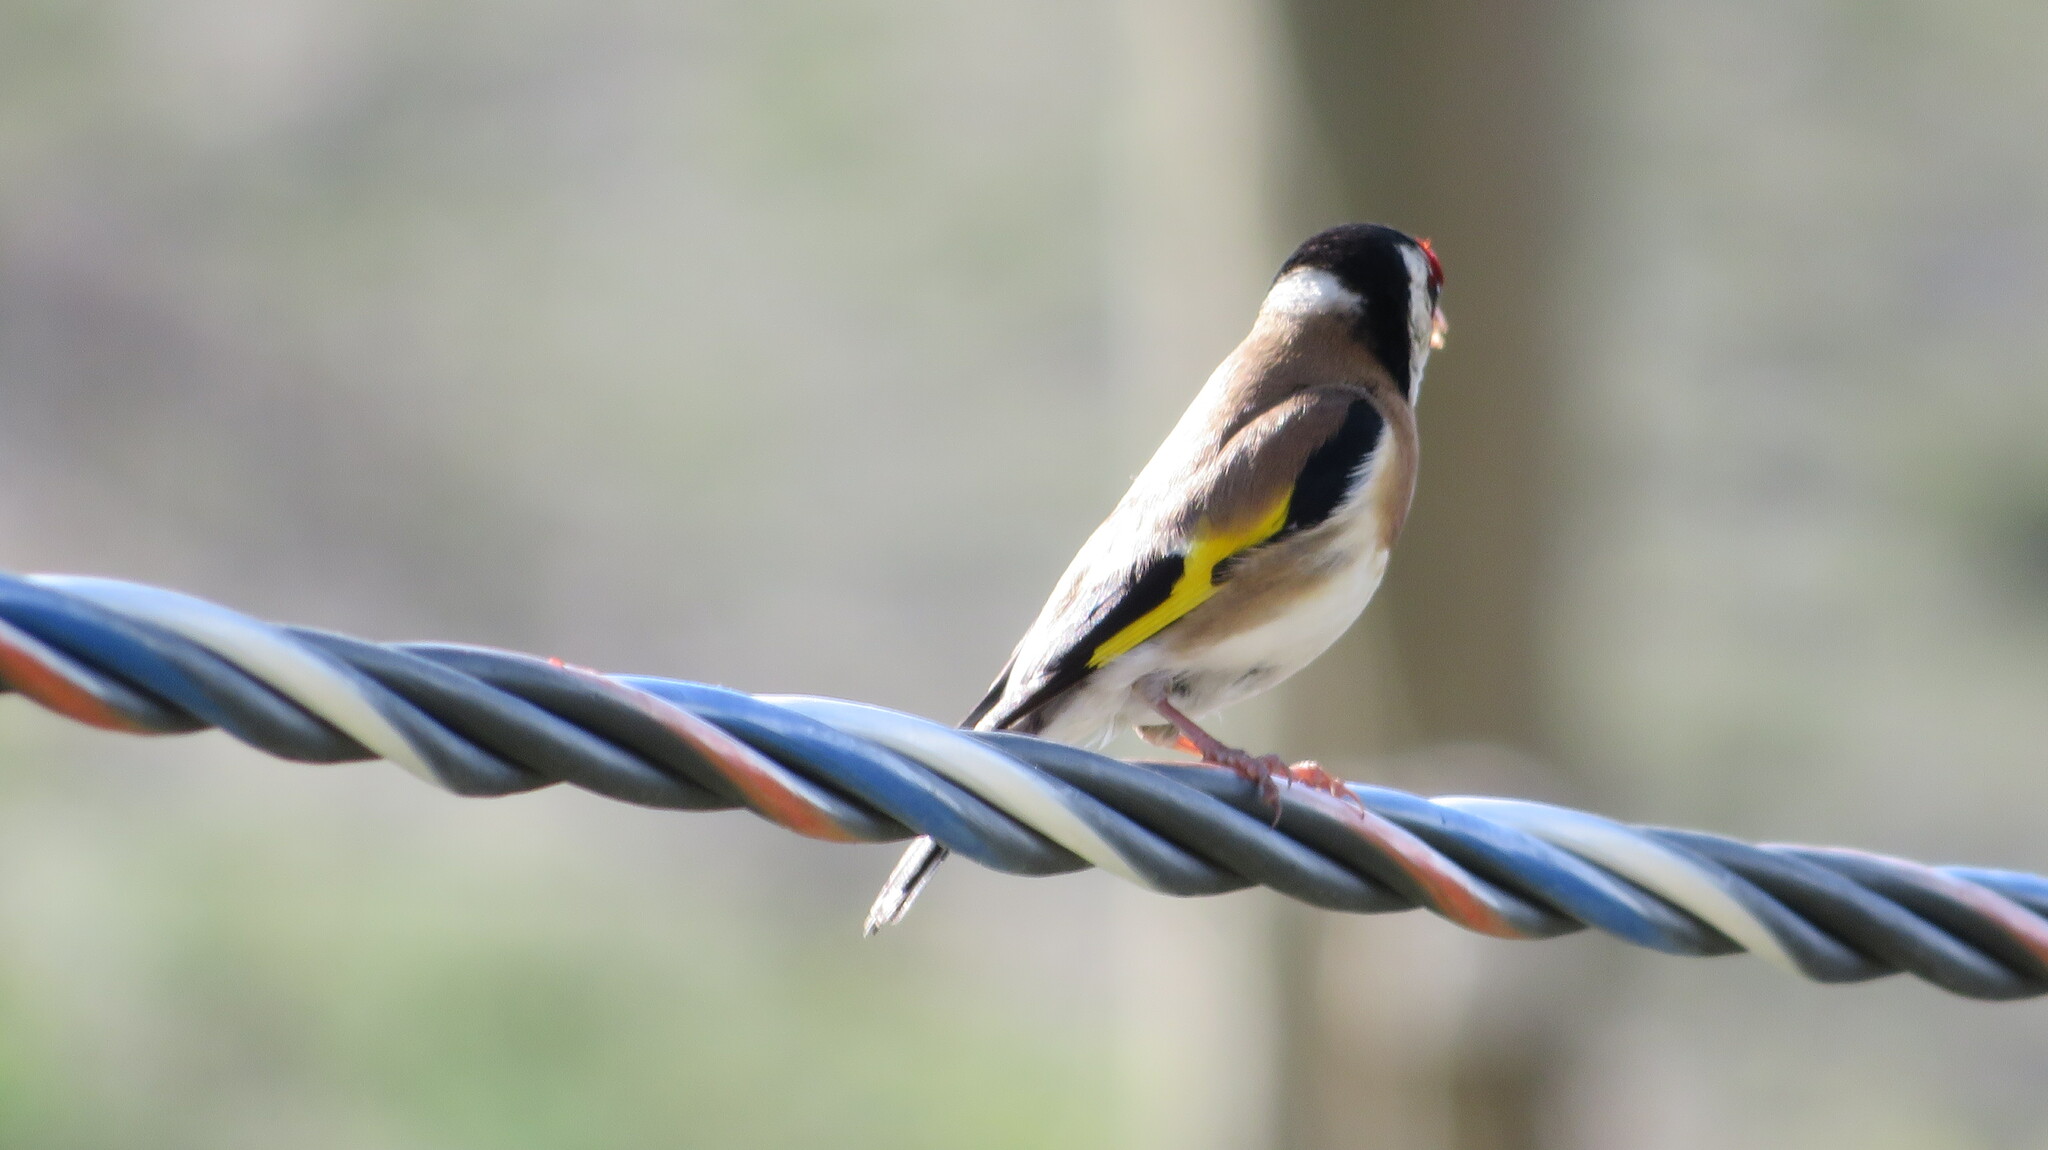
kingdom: Animalia
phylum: Chordata
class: Aves
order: Passeriformes
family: Fringillidae
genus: Carduelis
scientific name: Carduelis carduelis
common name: European goldfinch
